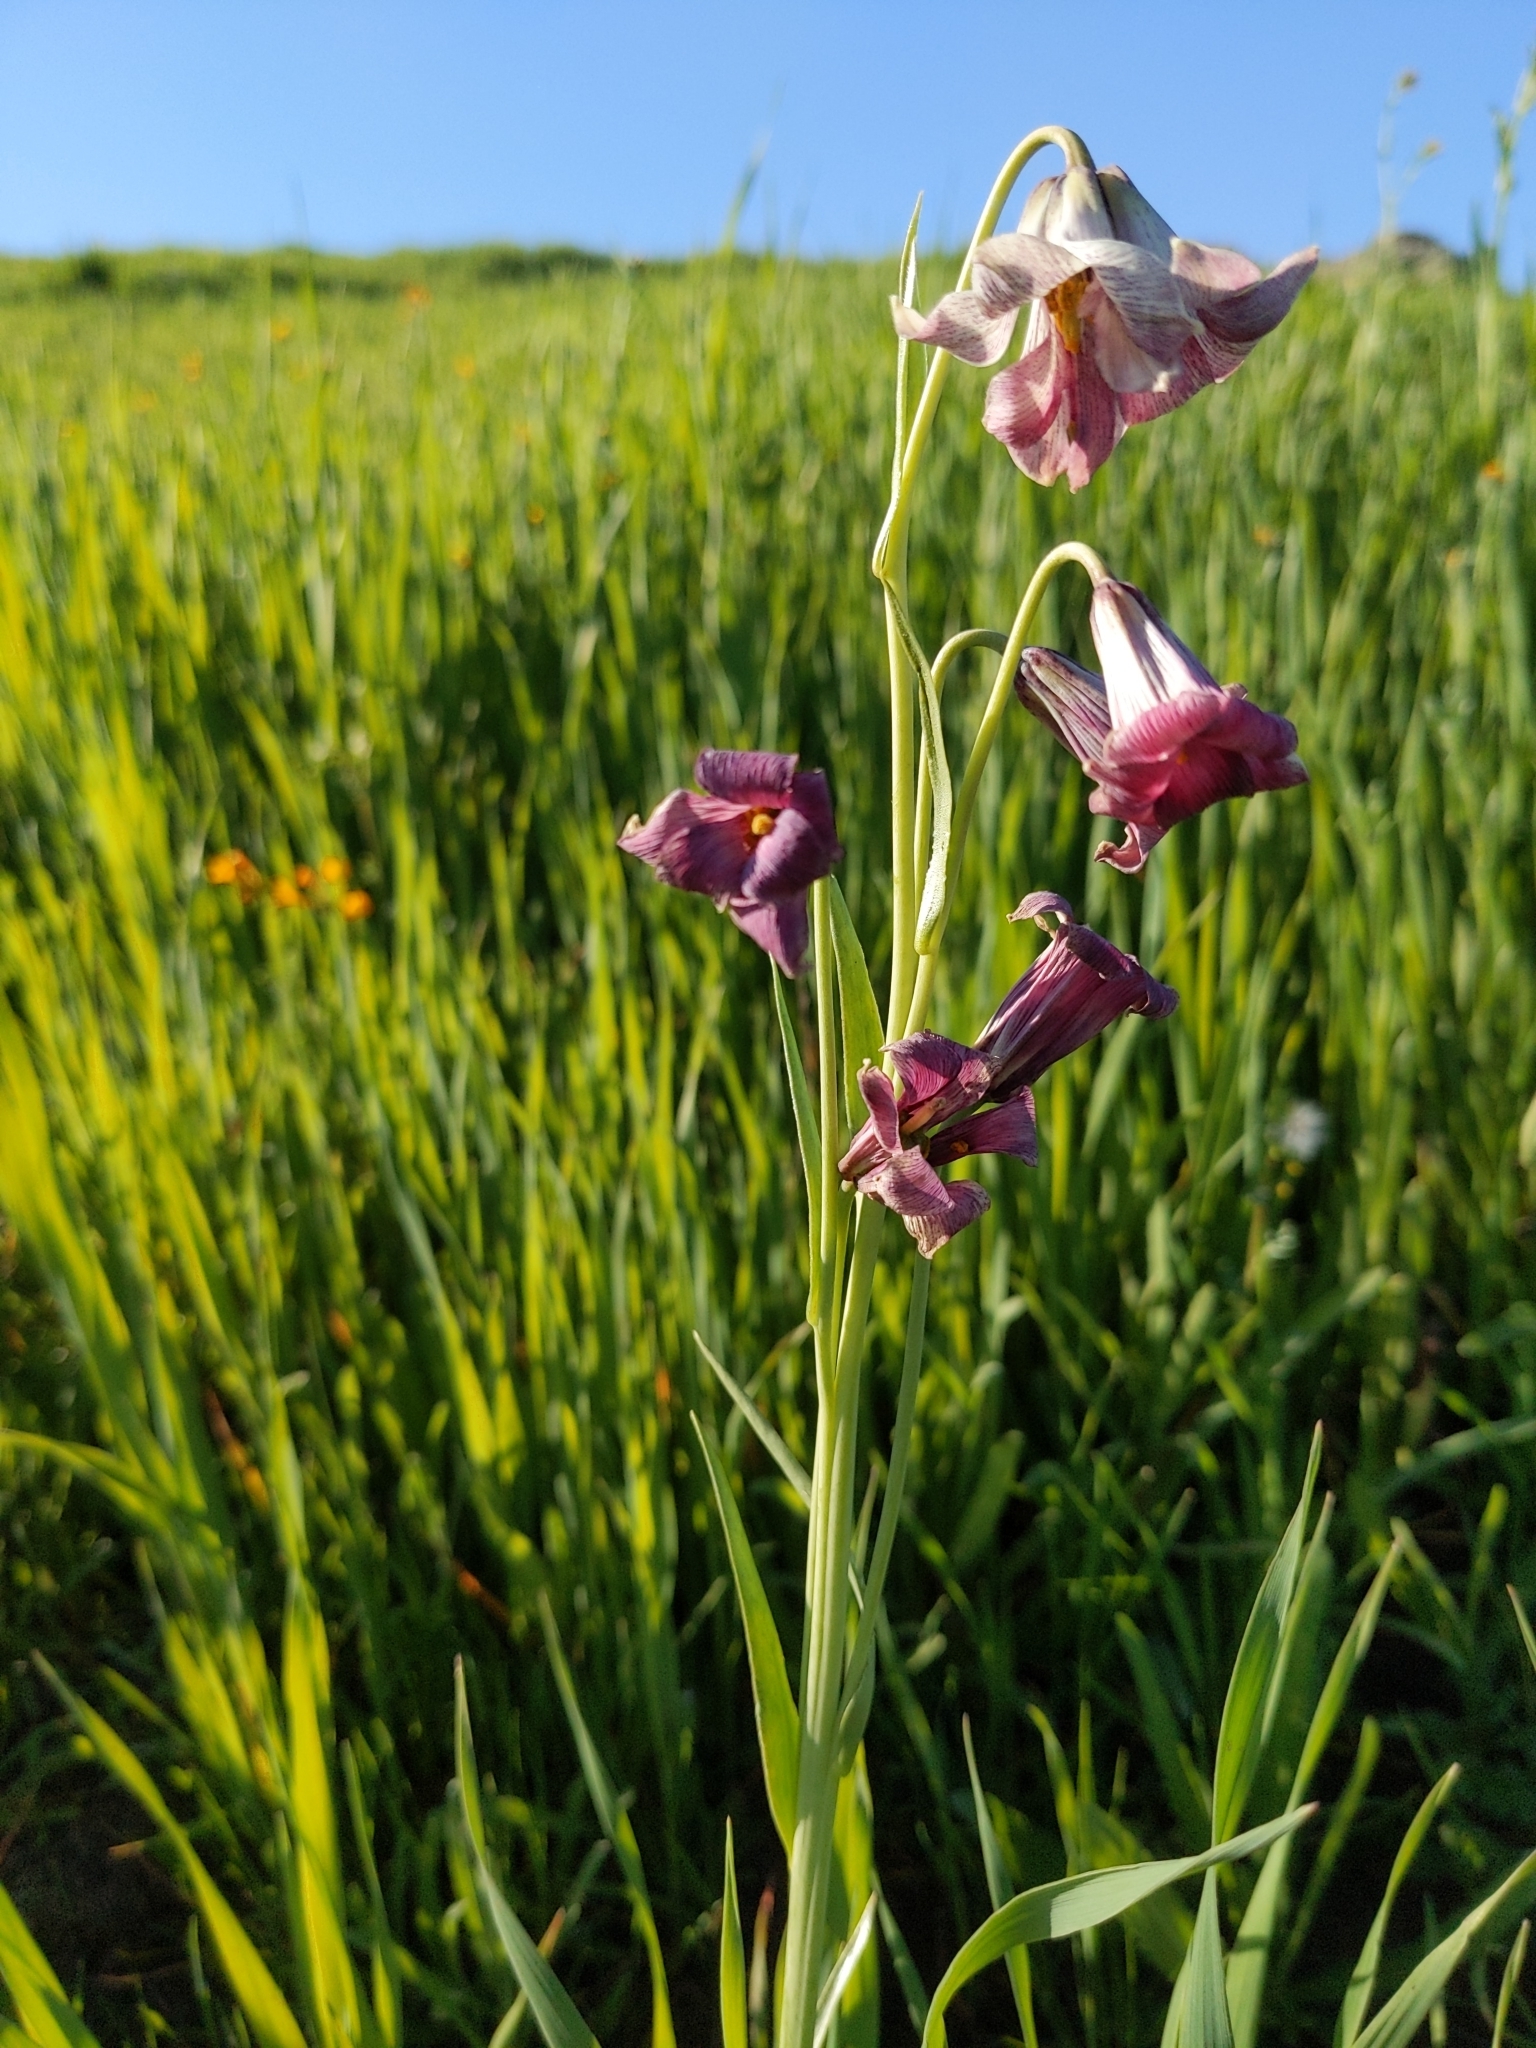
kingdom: Plantae
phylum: Tracheophyta
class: Liliopsida
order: Liliales
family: Liliaceae
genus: Fritillaria
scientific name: Fritillaria striata
